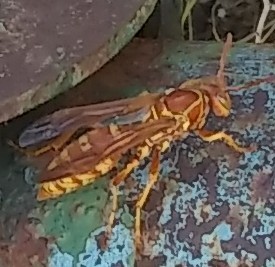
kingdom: Animalia
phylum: Arthropoda
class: Insecta
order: Hymenoptera
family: Eumenidae
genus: Polistes
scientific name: Polistes apachus
